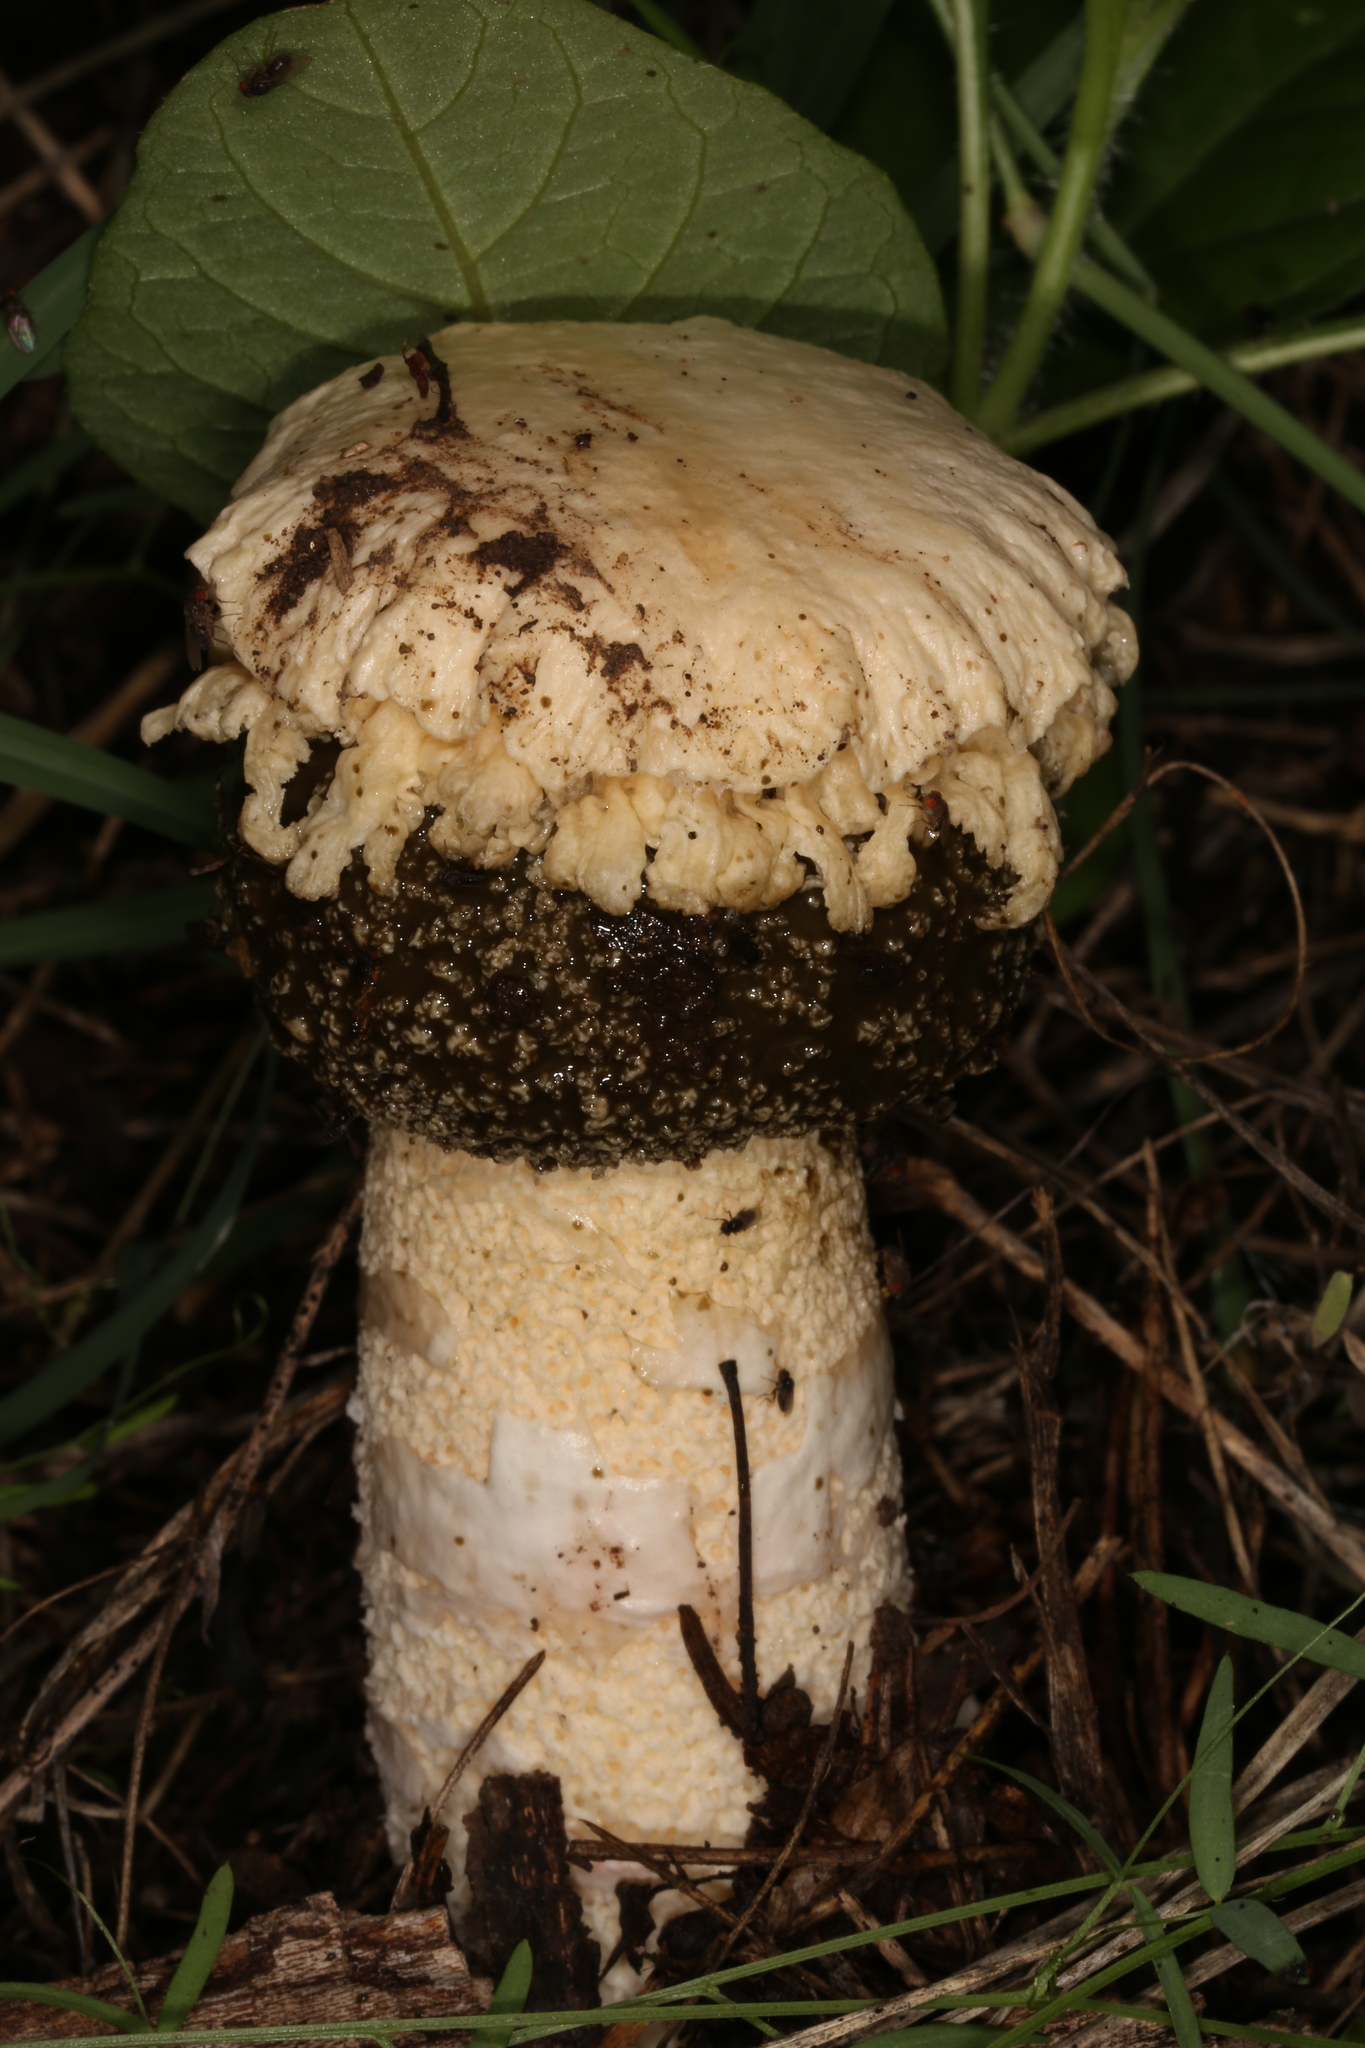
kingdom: Fungi
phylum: Basidiomycota
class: Agaricomycetes
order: Phallales
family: Phallaceae
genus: Itajahya
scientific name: Itajahya galericulata
